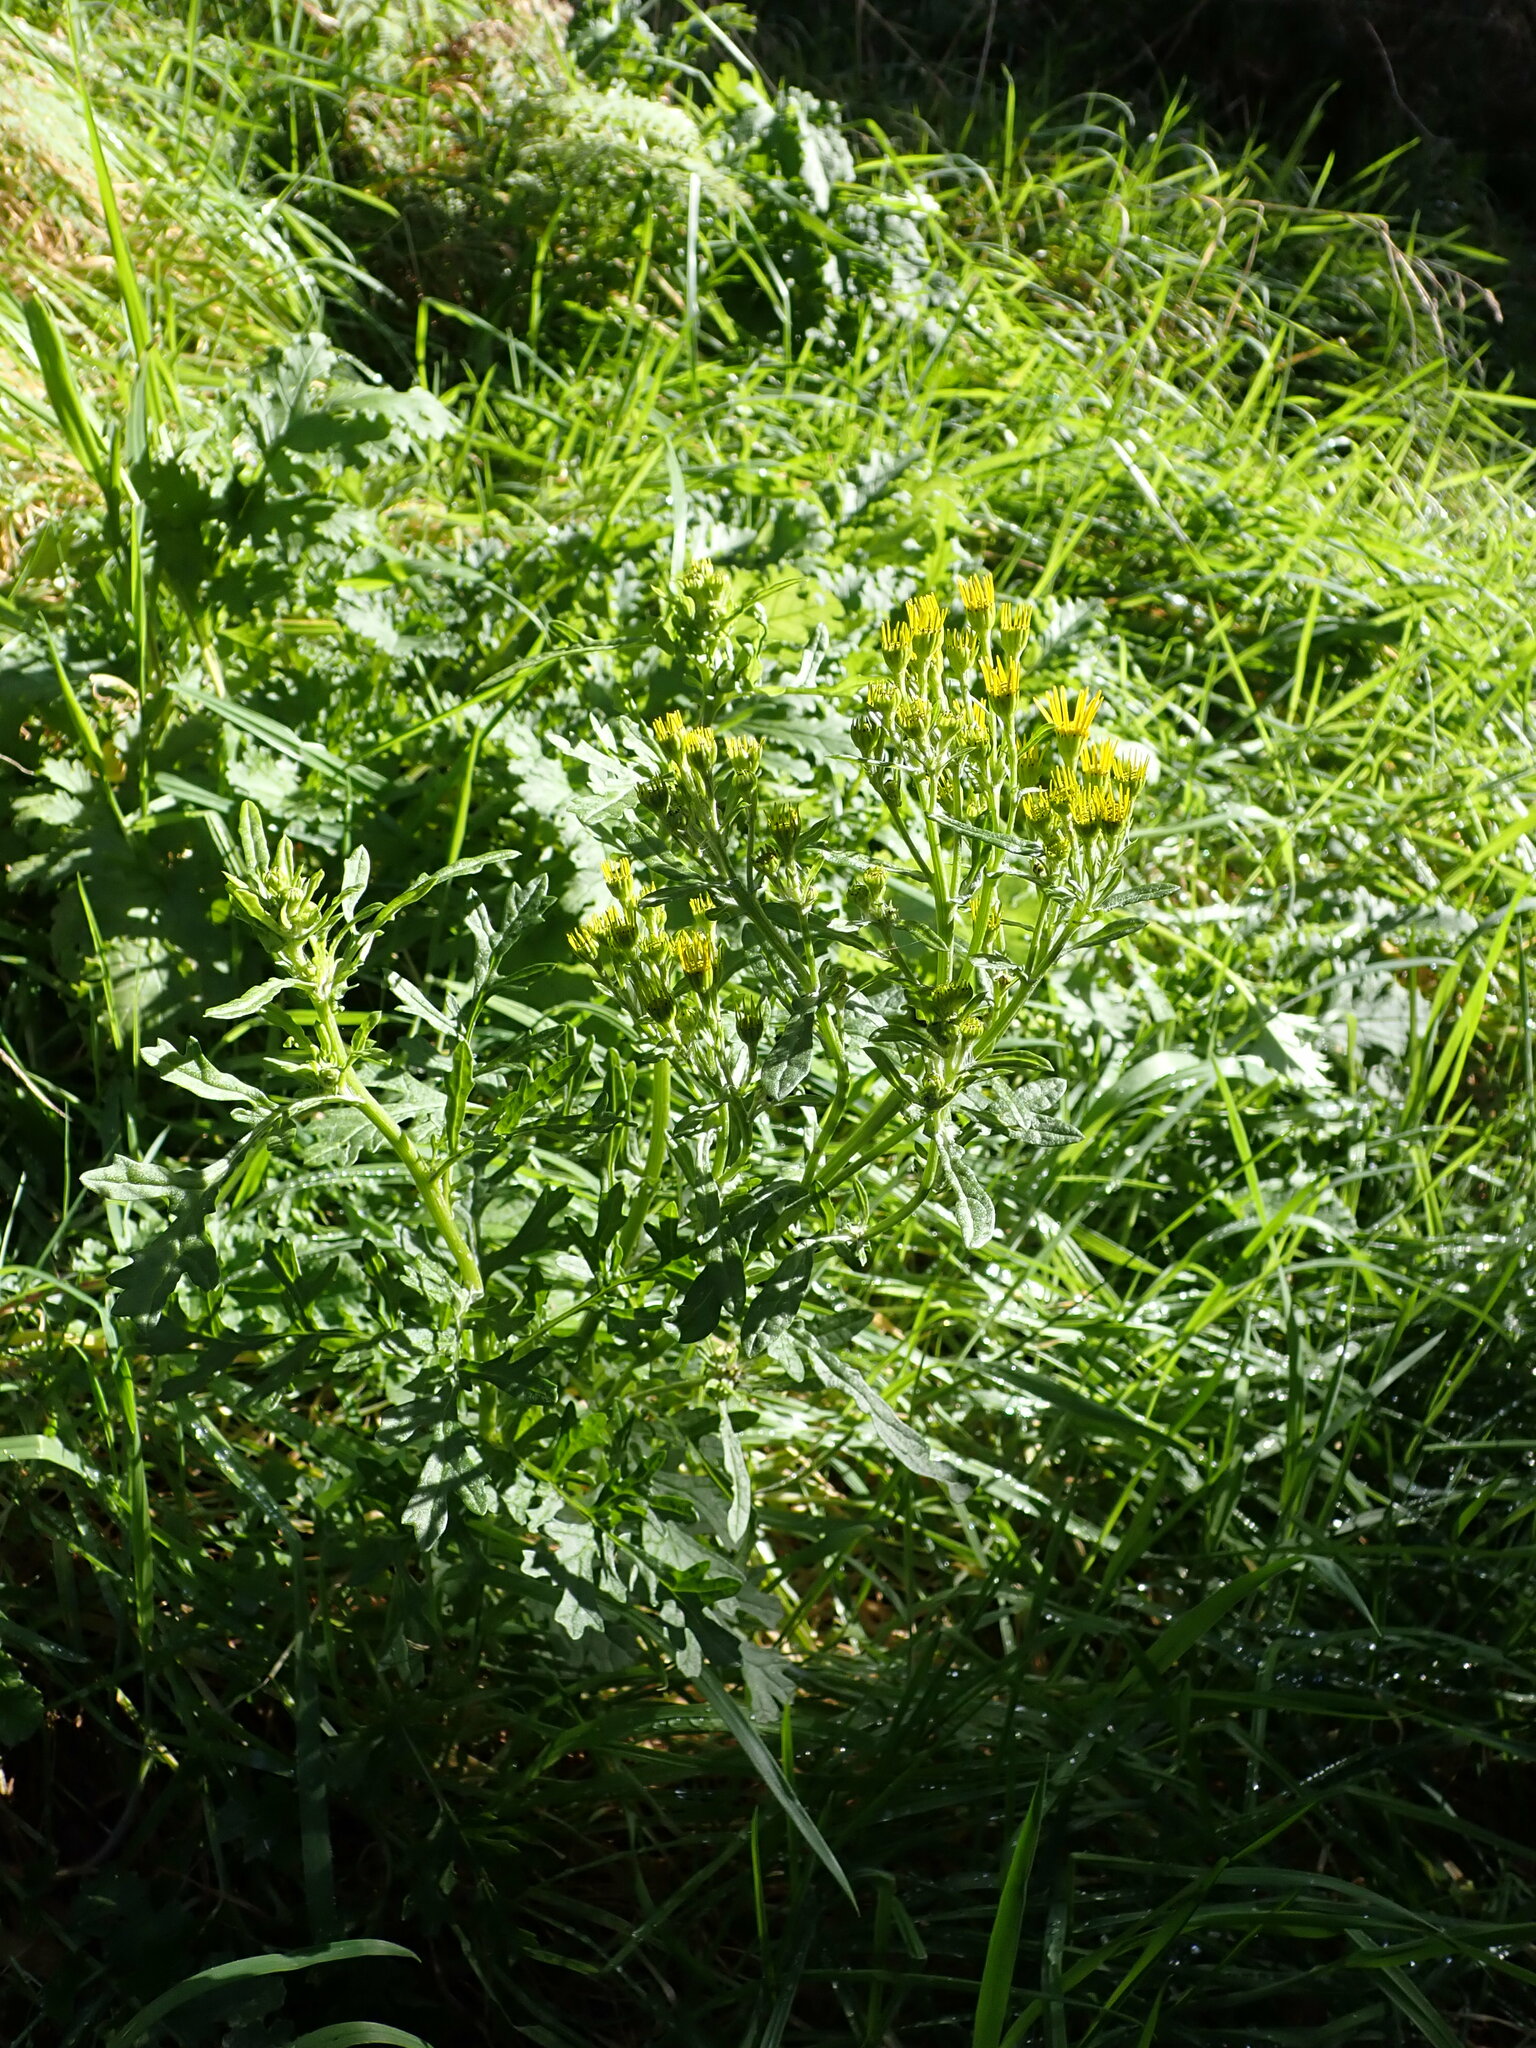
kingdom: Plantae
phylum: Tracheophyta
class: Magnoliopsida
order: Asterales
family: Asteraceae
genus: Jacobaea
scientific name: Jacobaea vulgaris
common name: Stinking willie
